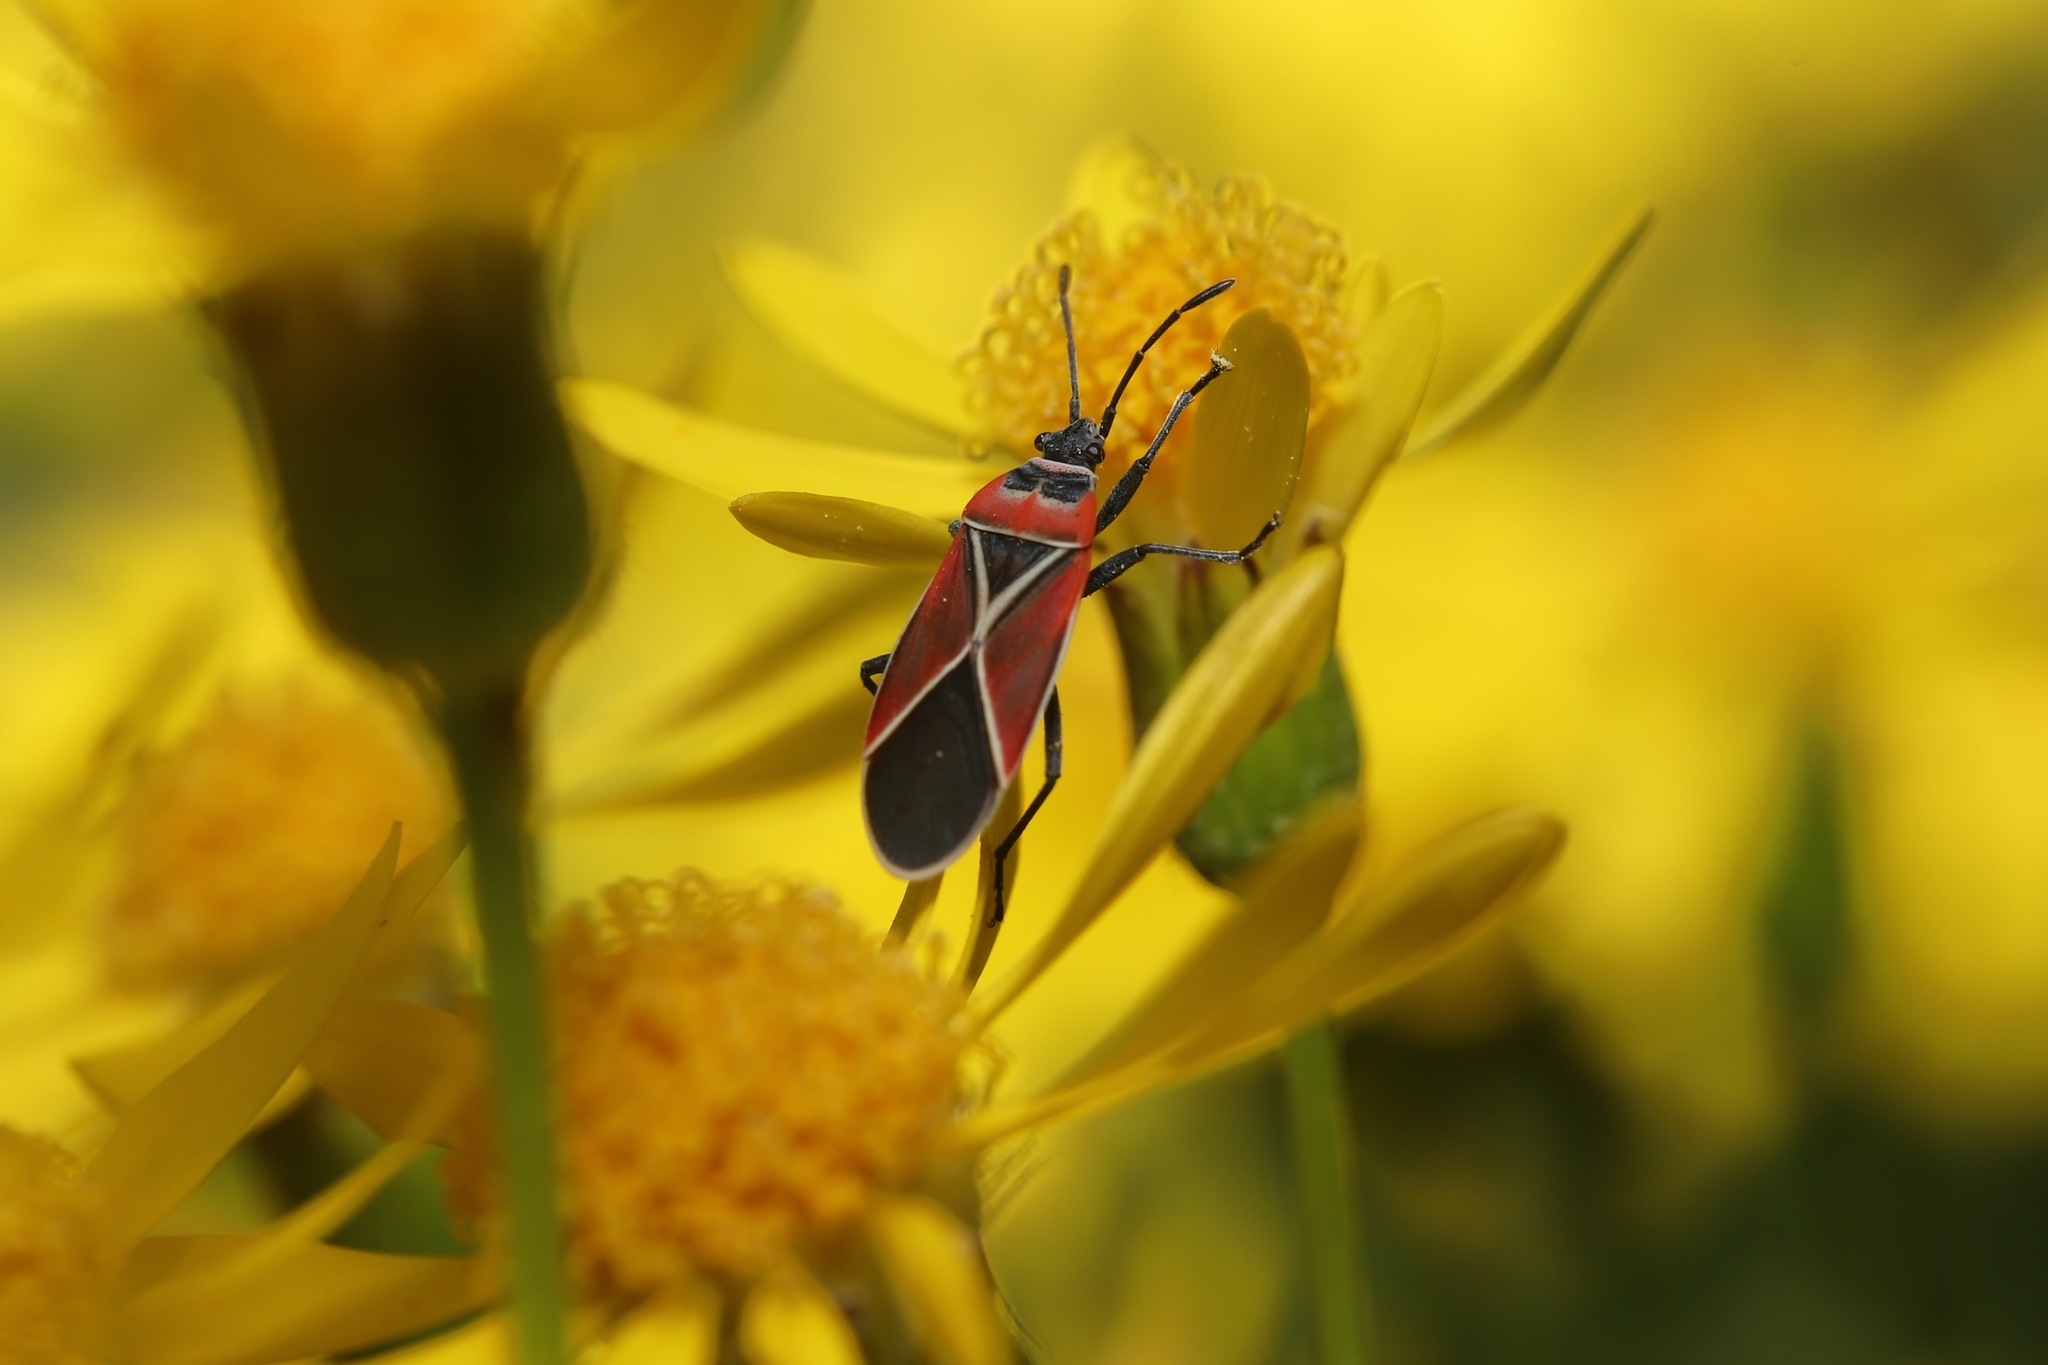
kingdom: Animalia
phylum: Arthropoda
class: Insecta
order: Hemiptera
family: Lygaeidae
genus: Neacoryphus
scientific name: Neacoryphus bicrucis
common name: Lygaeid bug
